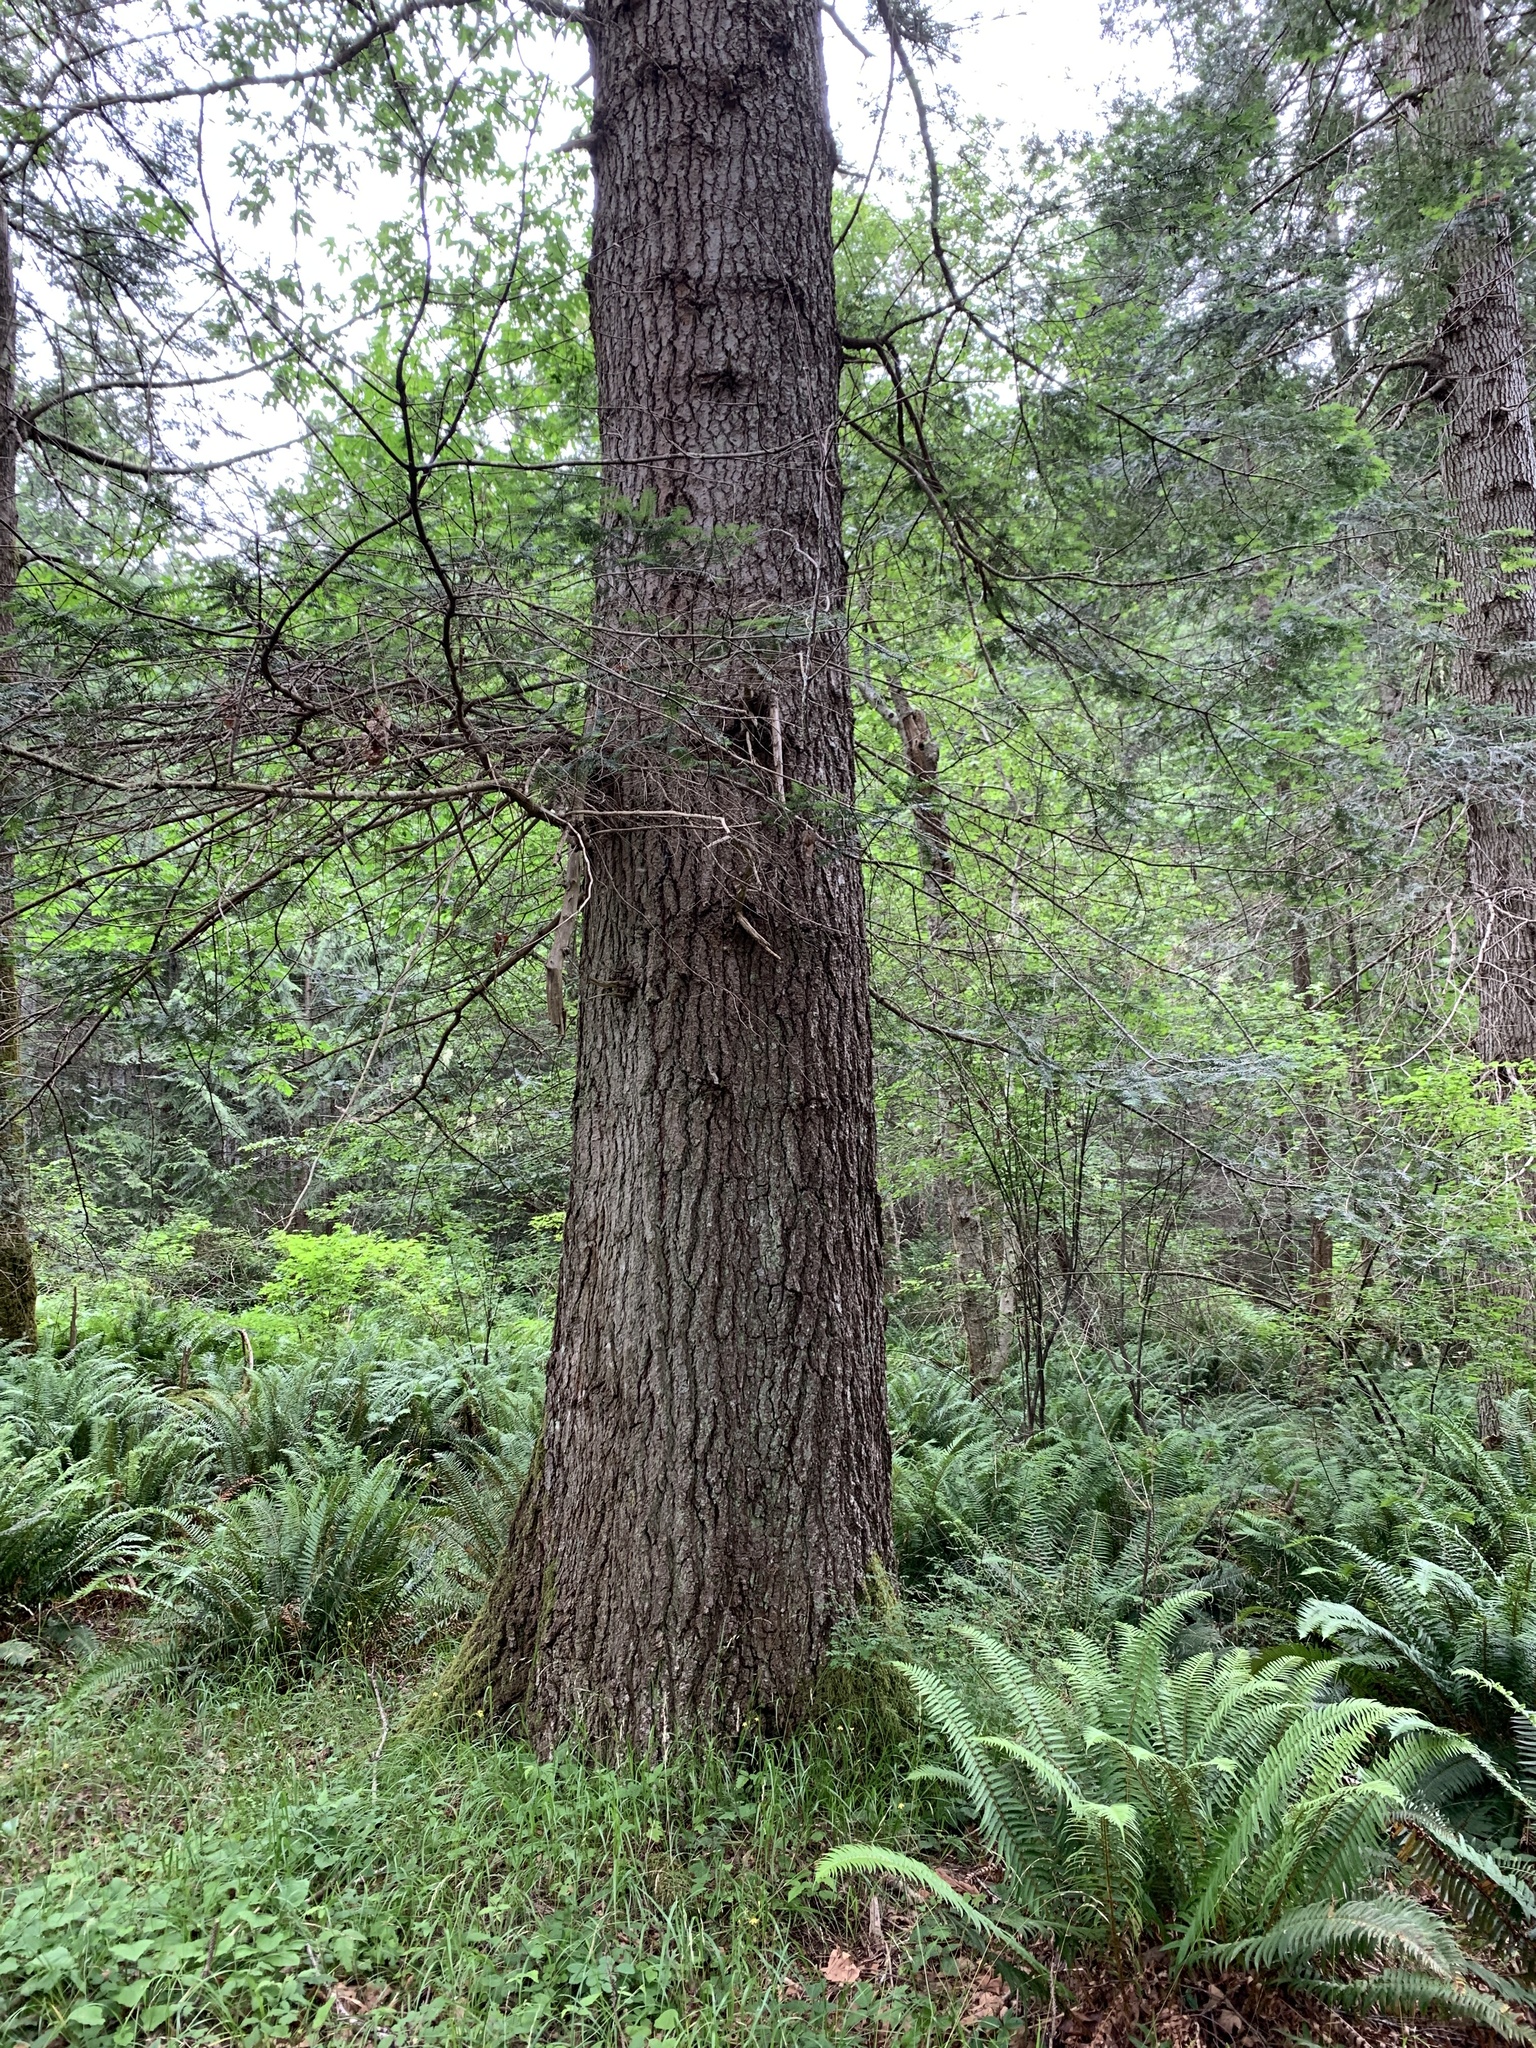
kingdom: Plantae
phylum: Tracheophyta
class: Pinopsida
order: Pinales
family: Pinaceae
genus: Abies
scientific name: Abies grandis
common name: Giant fir
